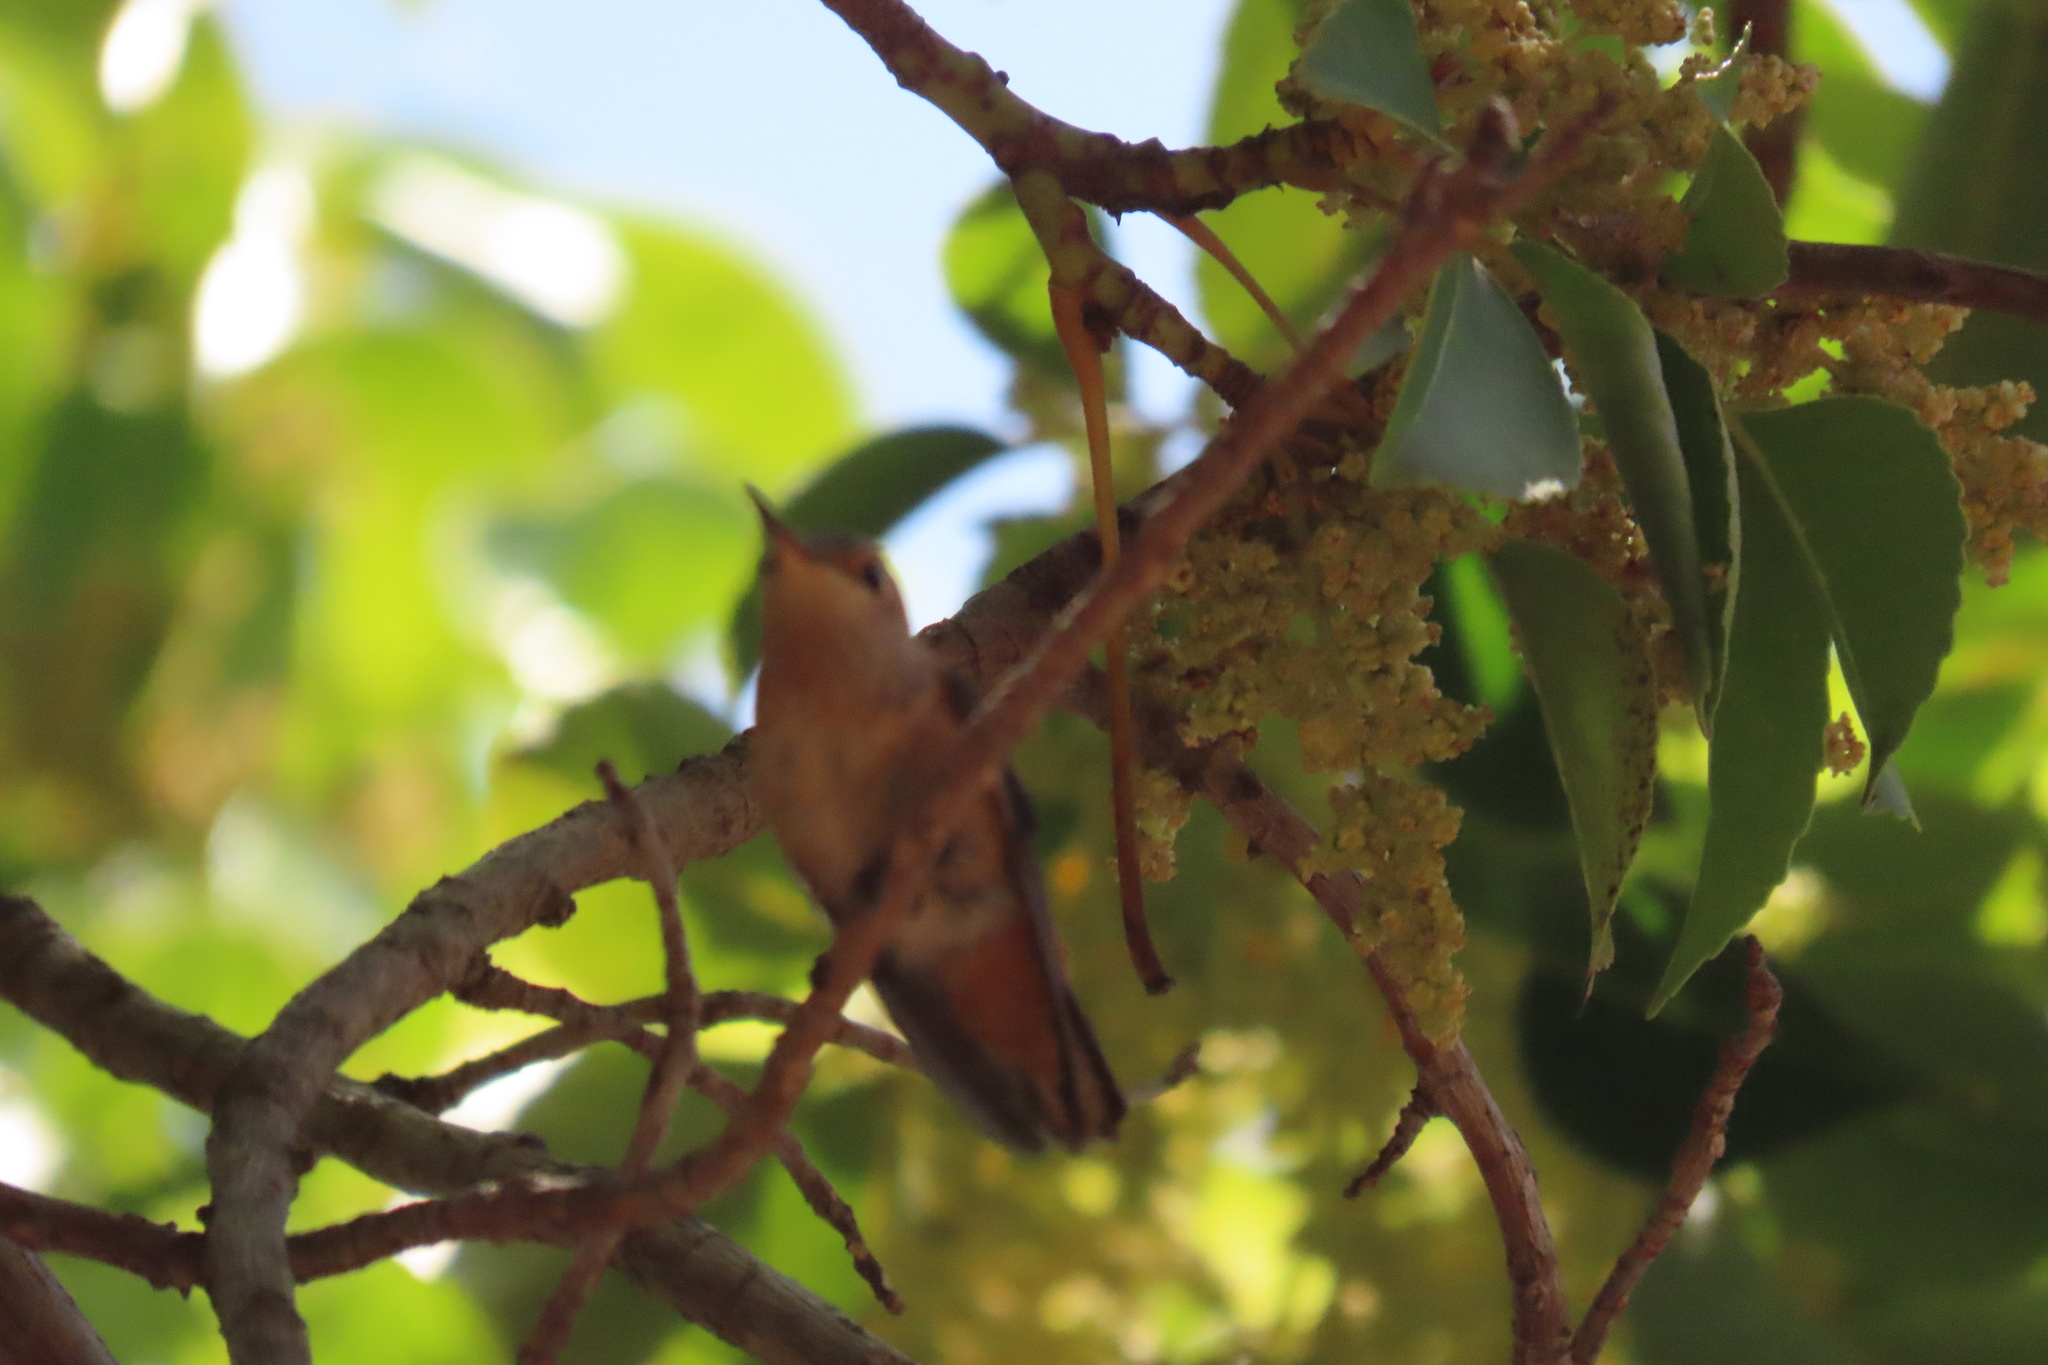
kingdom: Animalia
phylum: Chordata
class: Aves
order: Apodiformes
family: Trochilidae
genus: Selasphorus
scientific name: Selasphorus sasin
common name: Allen's hummingbird
